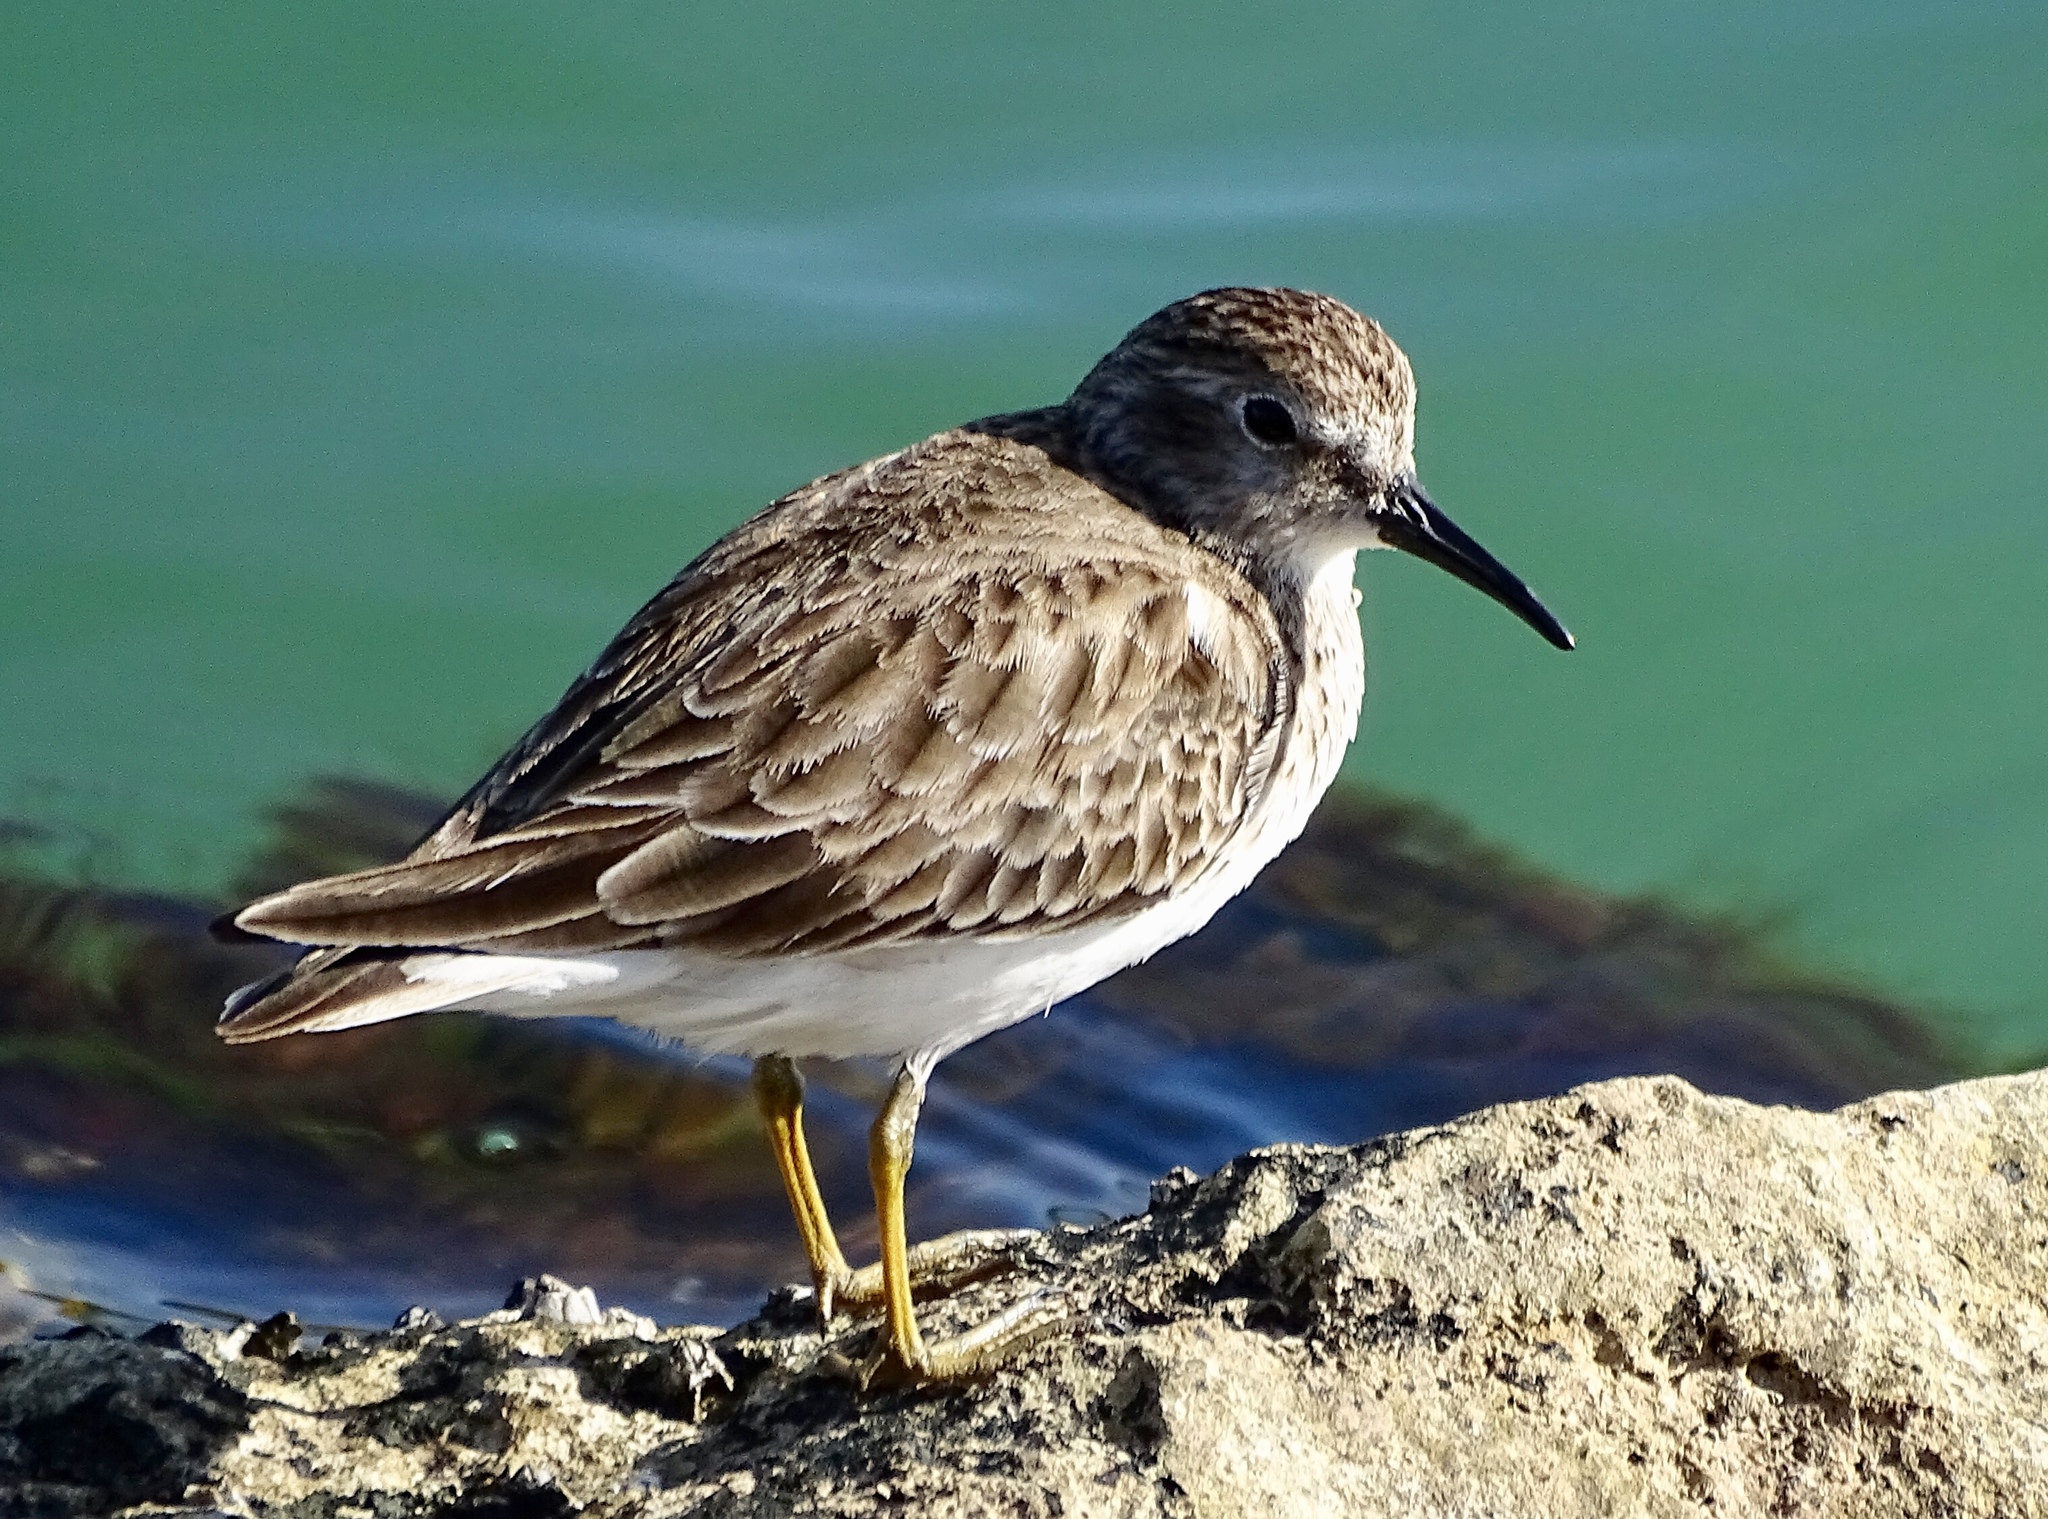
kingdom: Animalia
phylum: Chordata
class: Aves
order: Charadriiformes
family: Scolopacidae
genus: Calidris
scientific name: Calidris minutilla
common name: Least sandpiper
